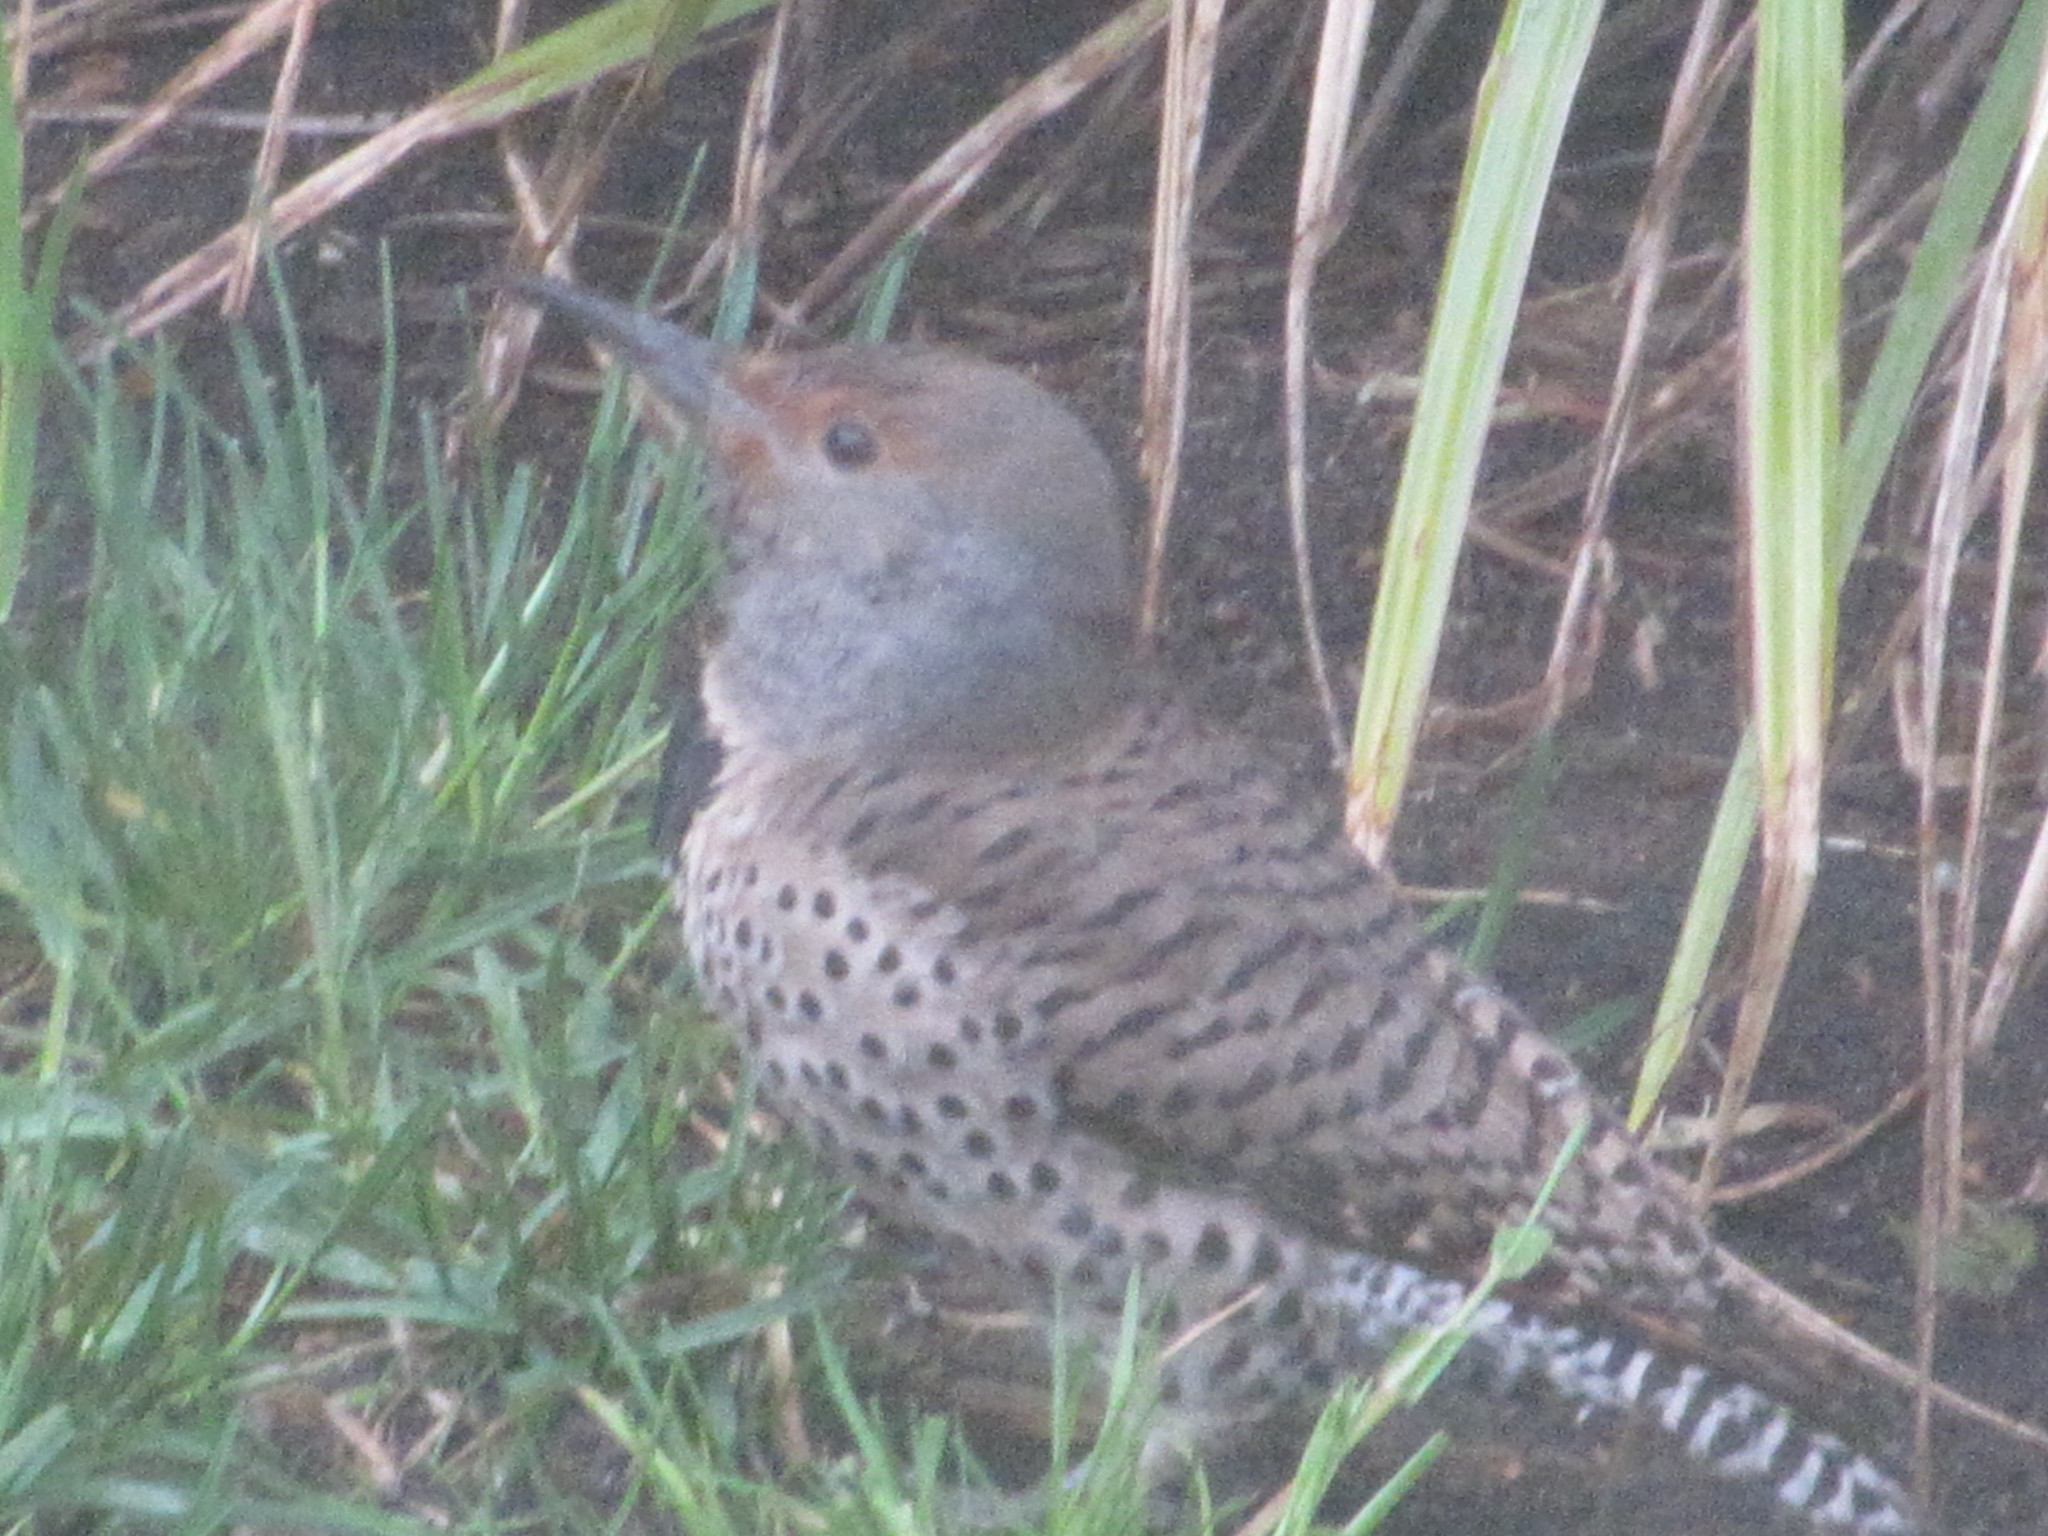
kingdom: Animalia
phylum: Chordata
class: Aves
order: Piciformes
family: Picidae
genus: Colaptes
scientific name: Colaptes auratus
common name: Northern flicker
